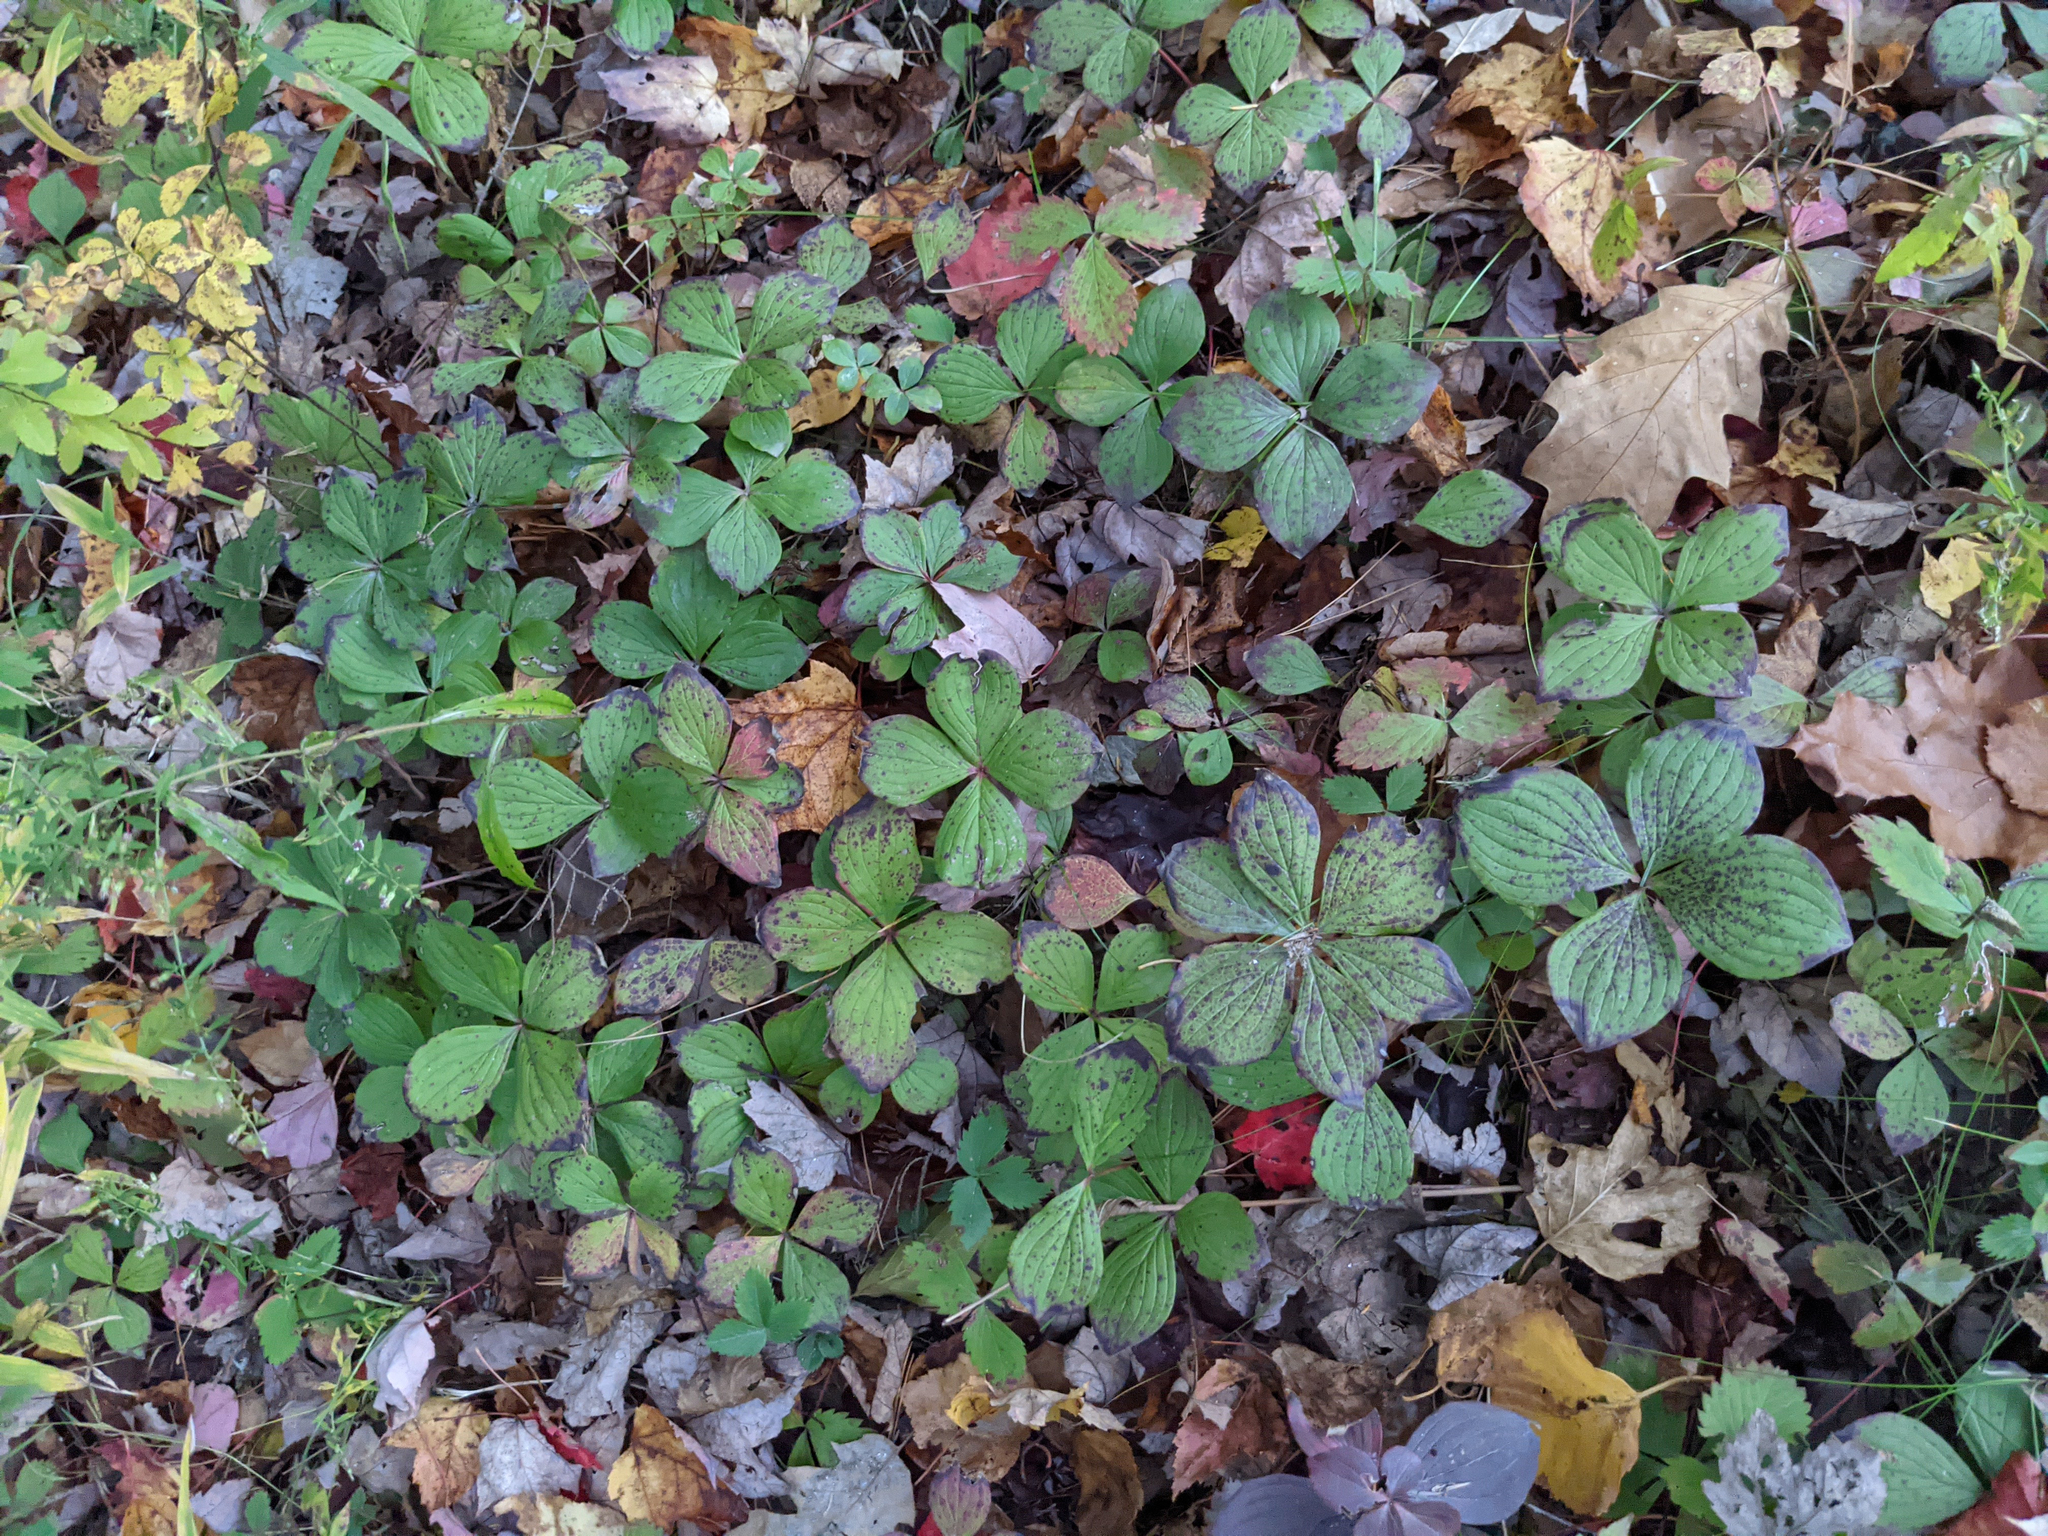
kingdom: Plantae
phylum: Tracheophyta
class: Magnoliopsida
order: Cornales
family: Cornaceae
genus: Cornus
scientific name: Cornus canadensis
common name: Creeping dogwood
